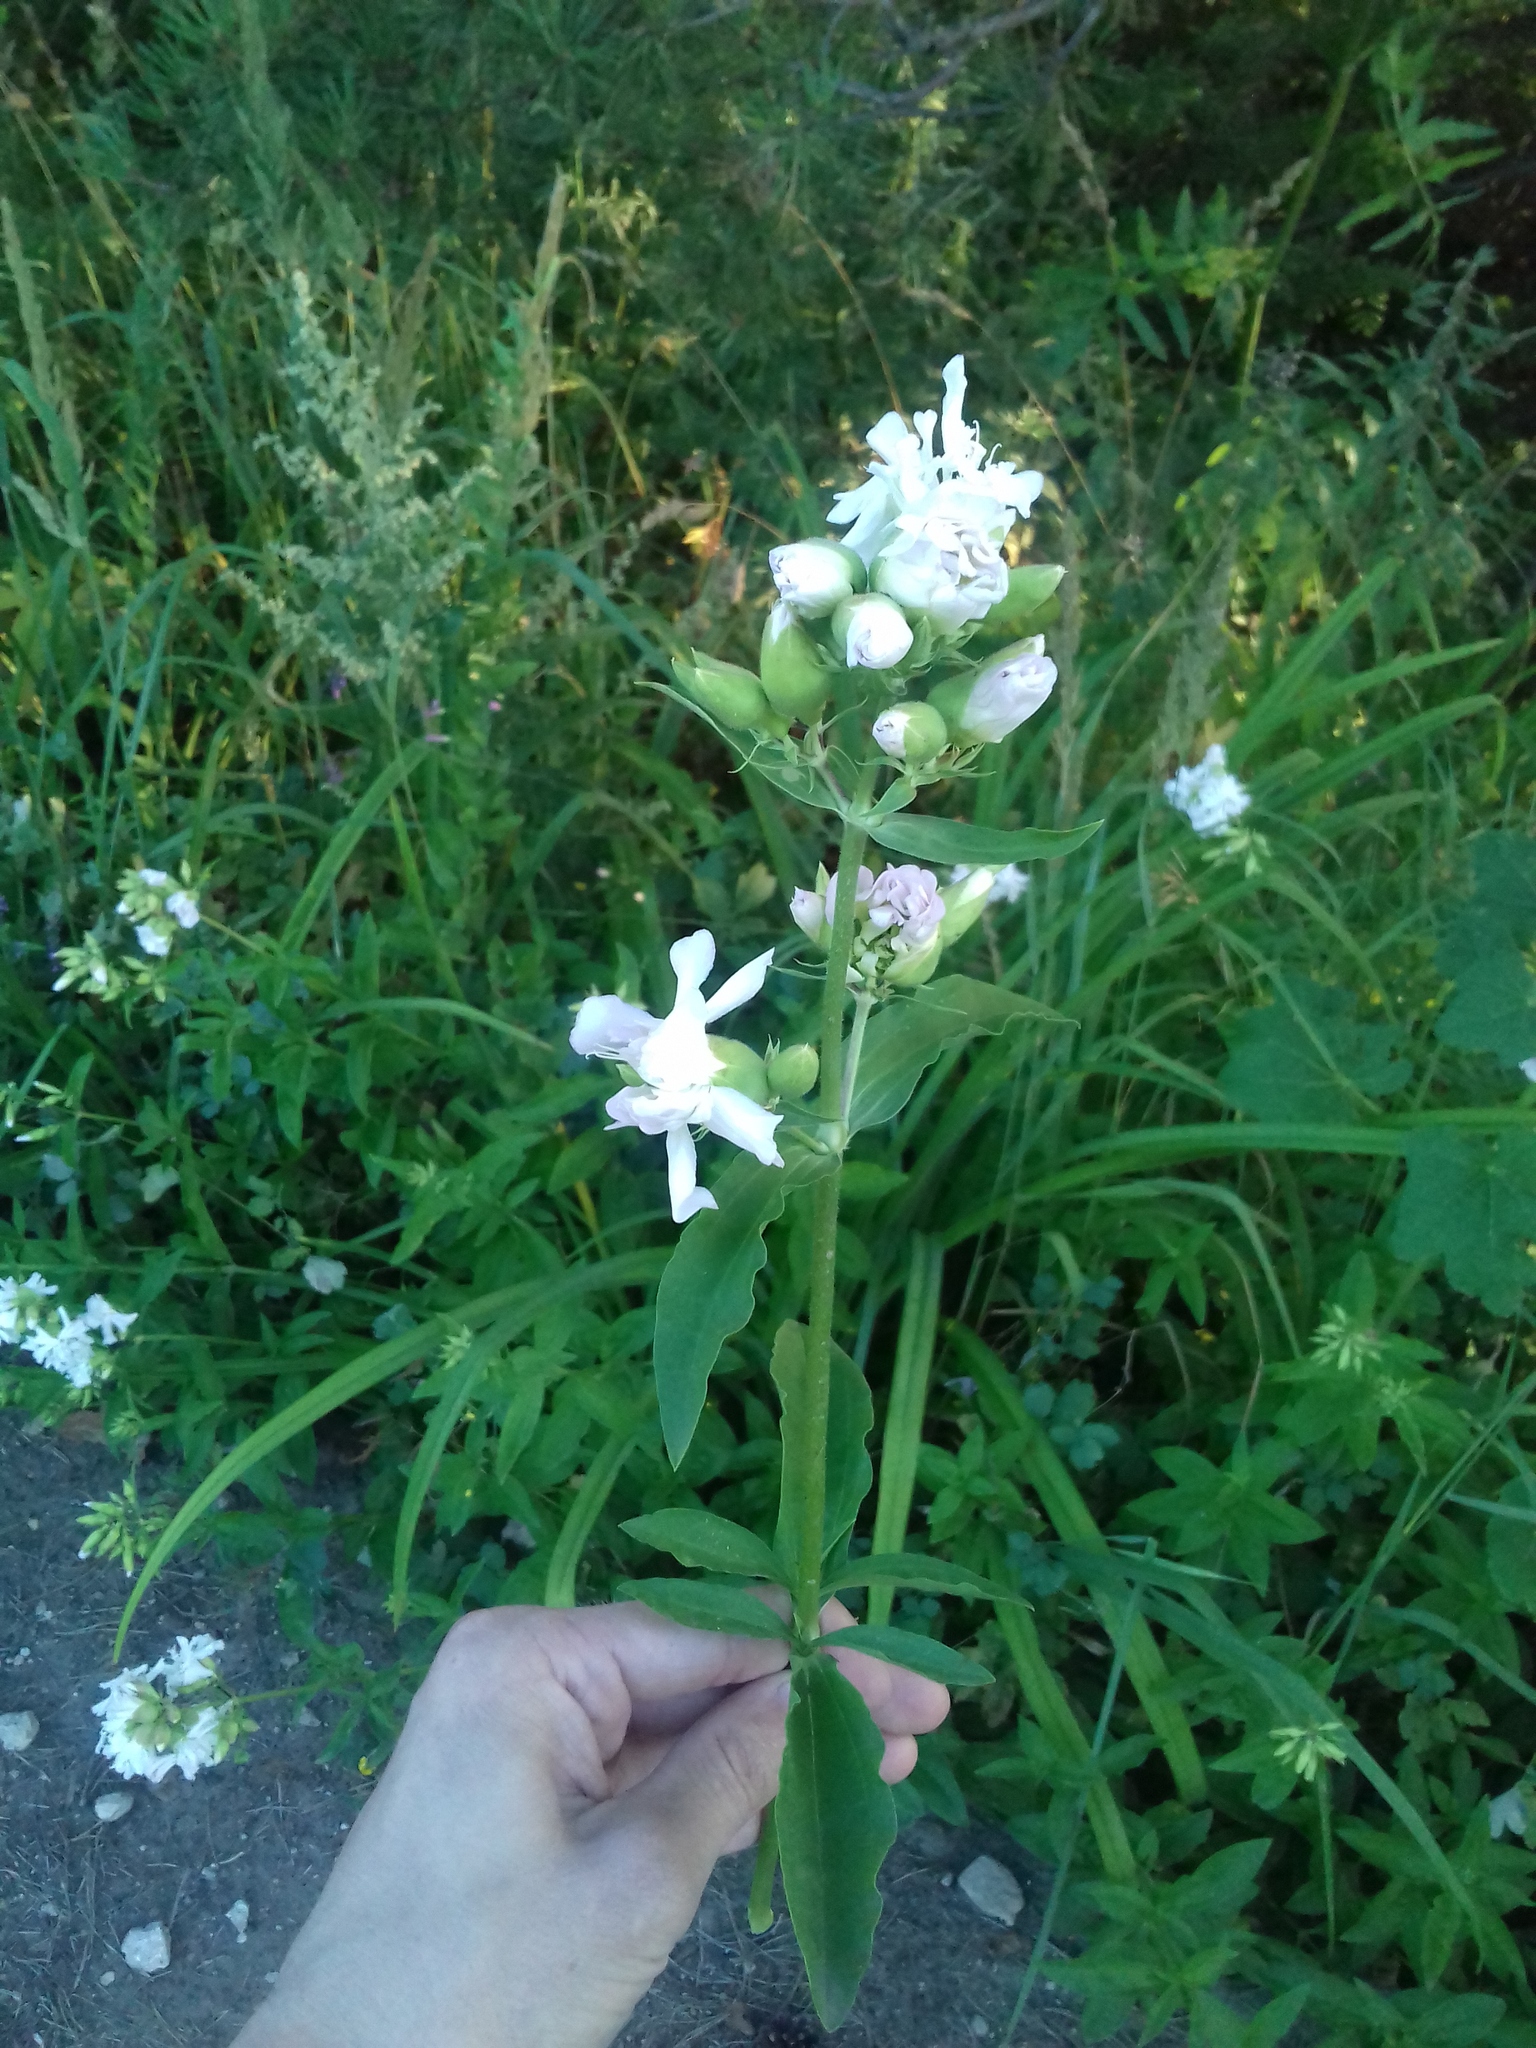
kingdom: Plantae
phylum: Tracheophyta
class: Magnoliopsida
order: Caryophyllales
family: Caryophyllaceae
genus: Saponaria
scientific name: Saponaria officinalis
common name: Soapwort
